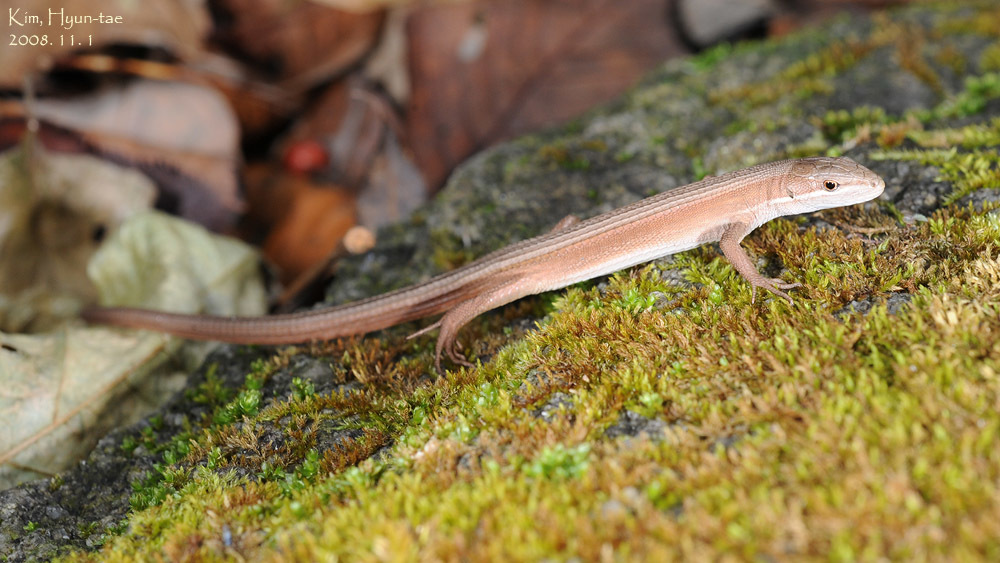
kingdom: Animalia
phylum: Chordata
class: Squamata
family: Lacertidae
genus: Takydromus
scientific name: Takydromus wolteri
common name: Mountain grass lizard
